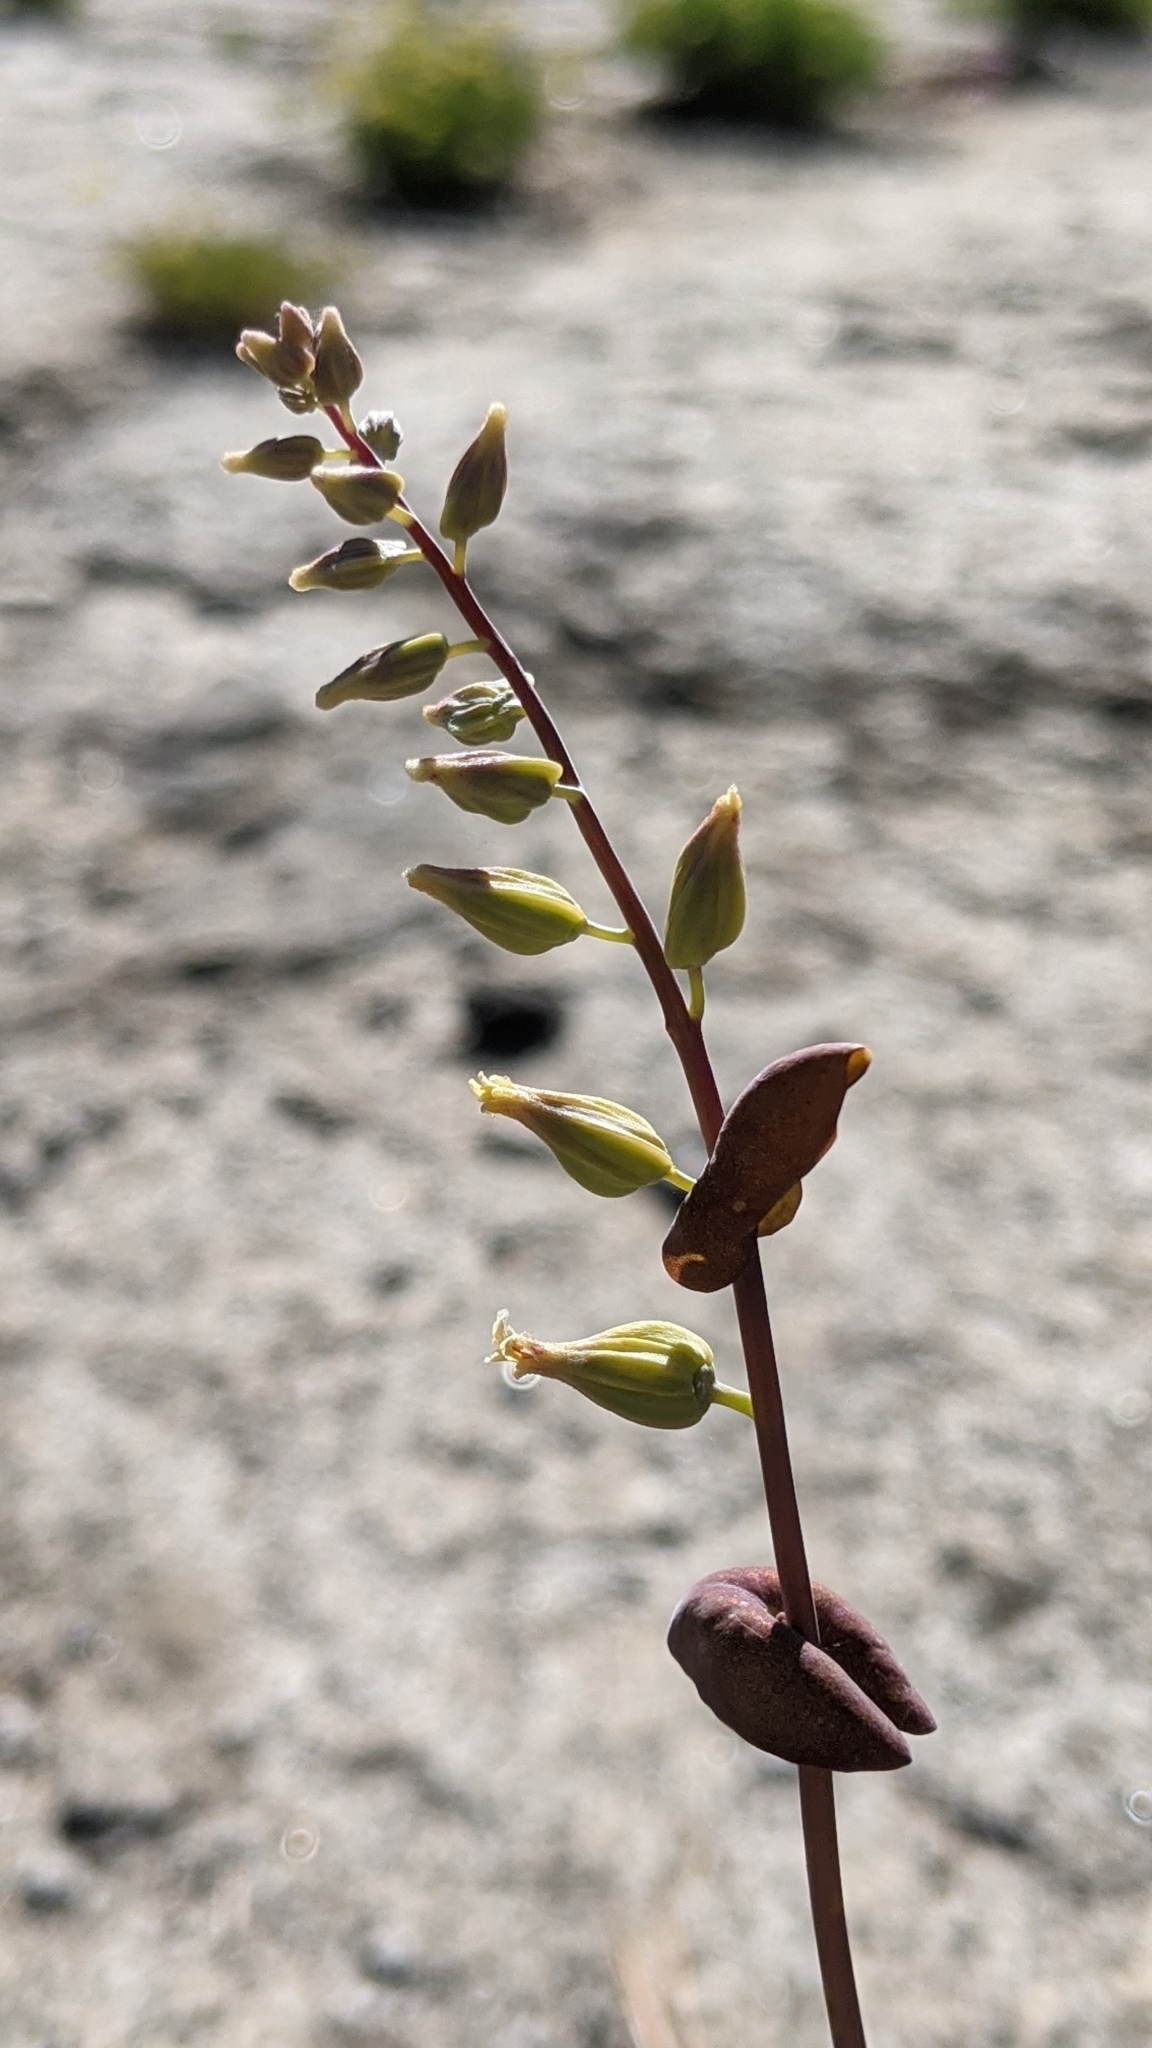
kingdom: Plantae
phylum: Tracheophyta
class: Magnoliopsida
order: Brassicales
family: Brassicaceae
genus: Streptanthus
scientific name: Streptanthus tortuosus
